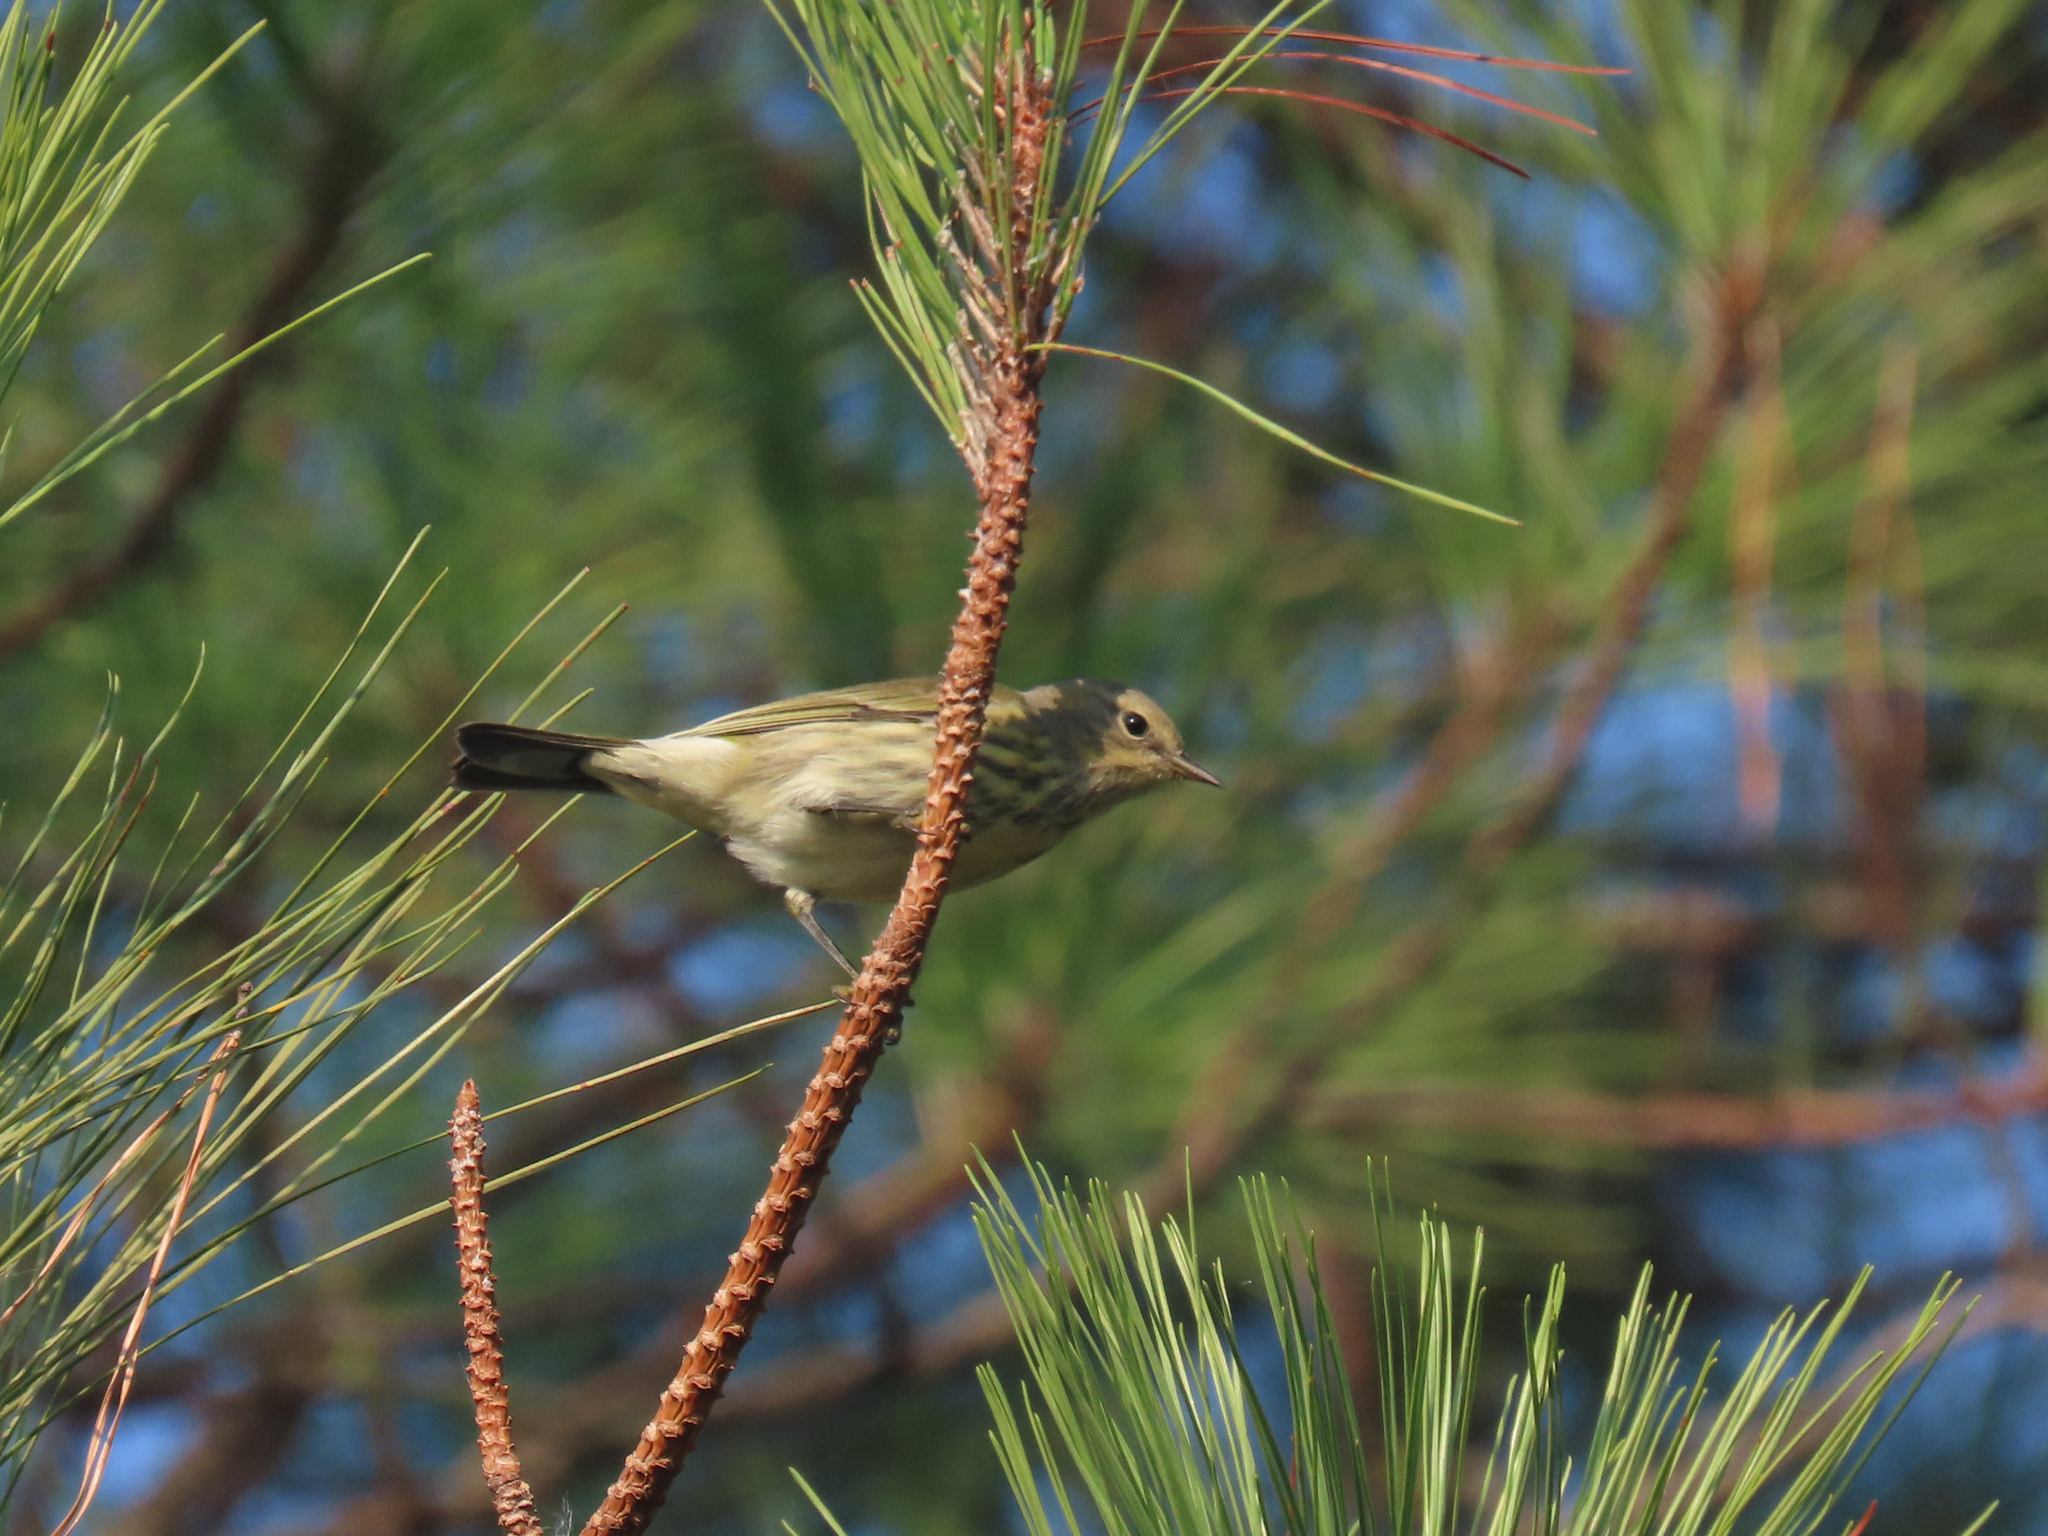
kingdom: Animalia
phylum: Chordata
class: Aves
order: Passeriformes
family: Parulidae
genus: Setophaga
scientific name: Setophaga tigrina
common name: Cape may warbler
